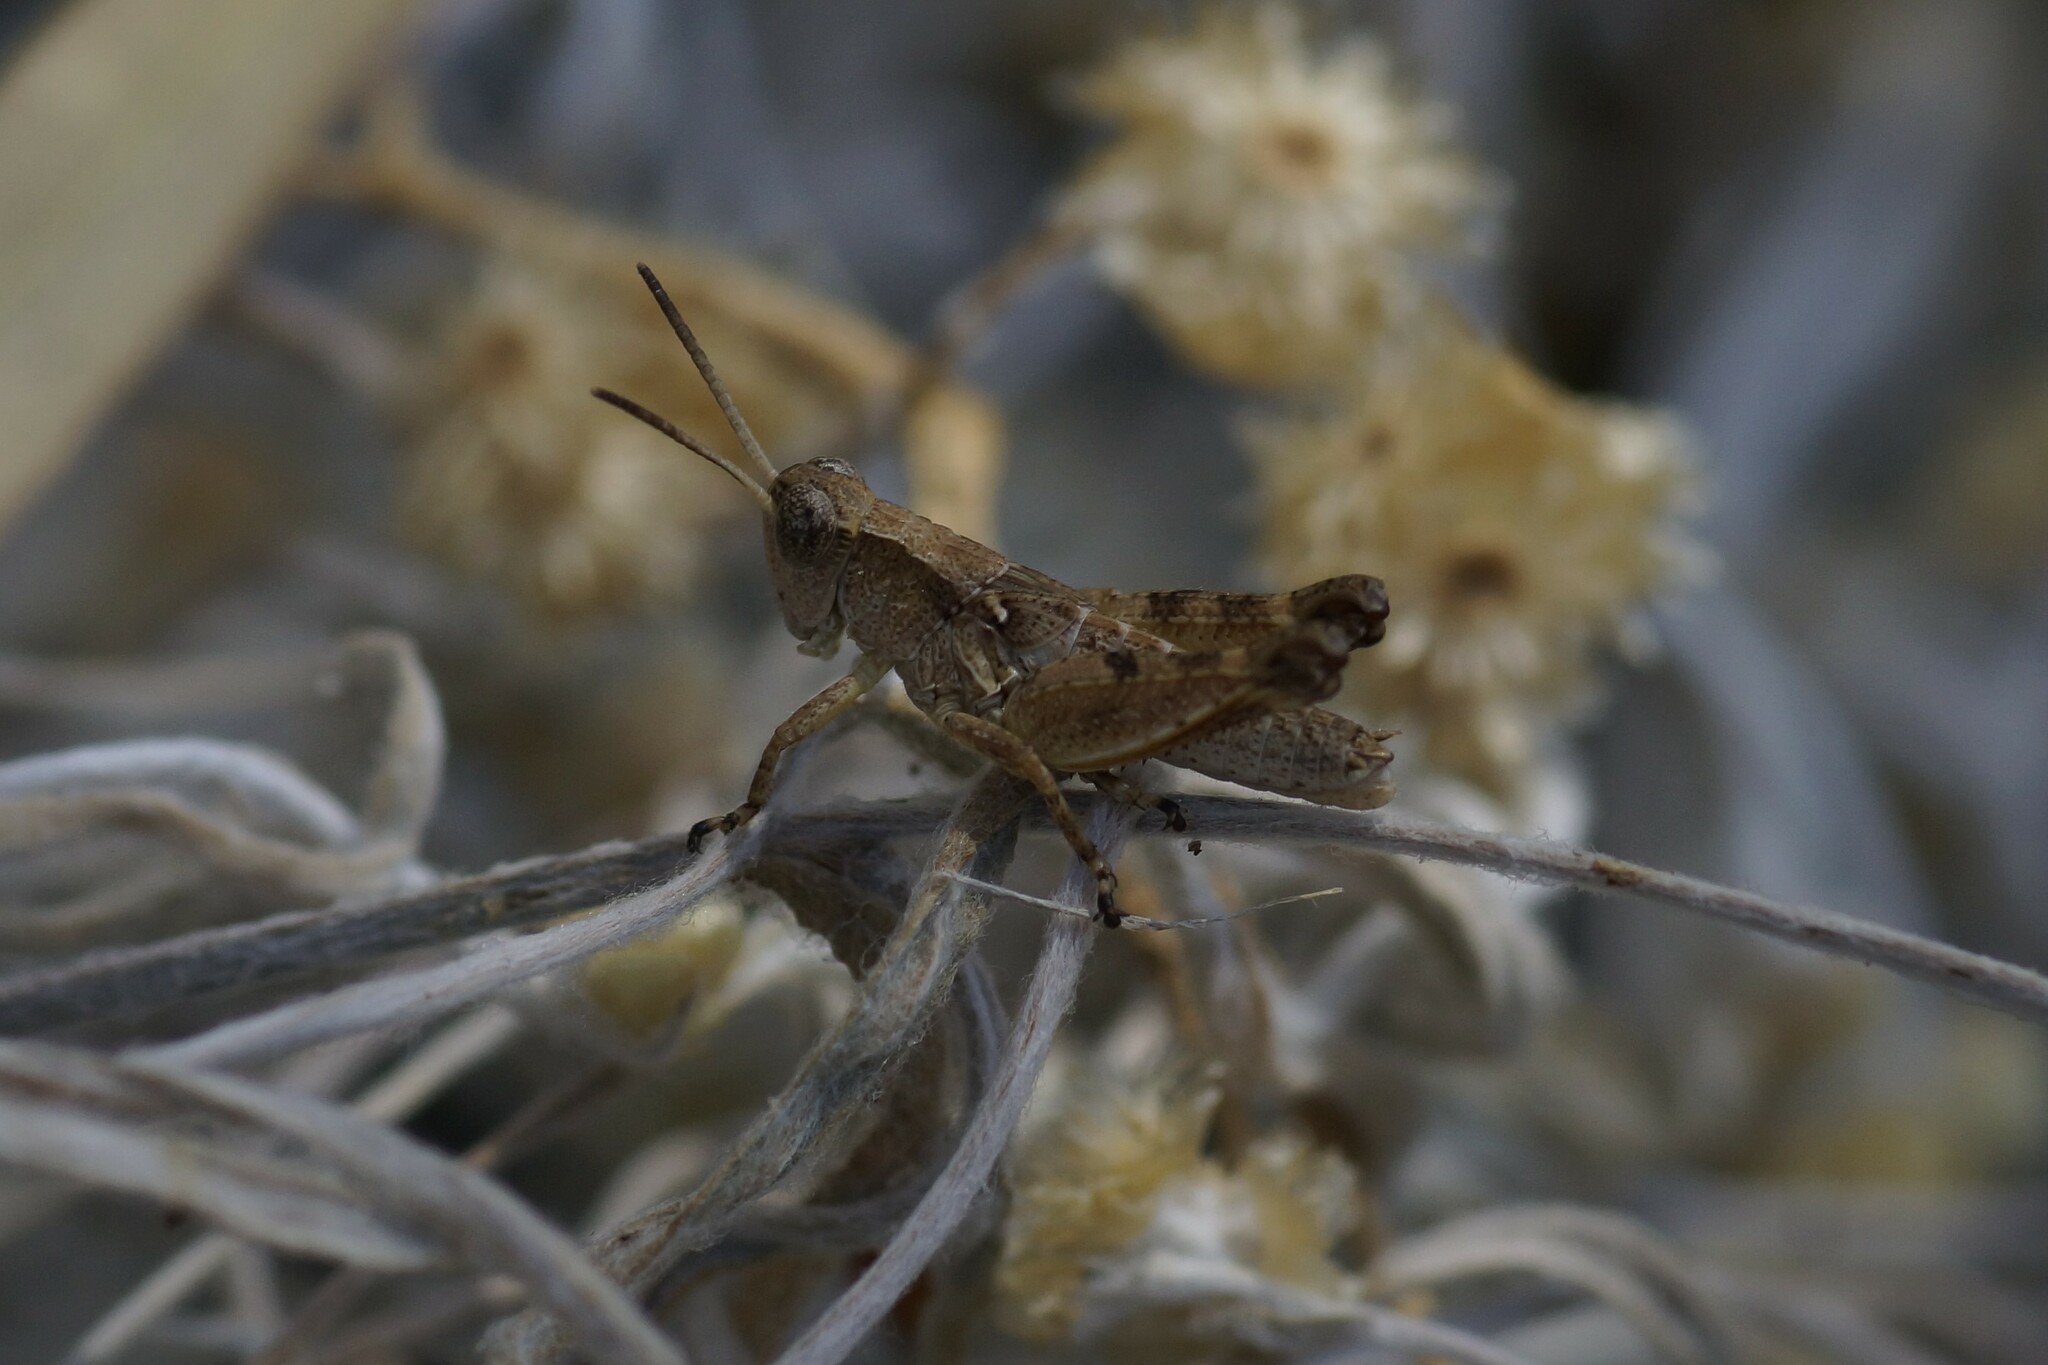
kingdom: Animalia
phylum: Arthropoda
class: Insecta
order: Orthoptera
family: Acrididae
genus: Phaulacridium
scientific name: Phaulacridium vittatum
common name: Wingless grasshopper
